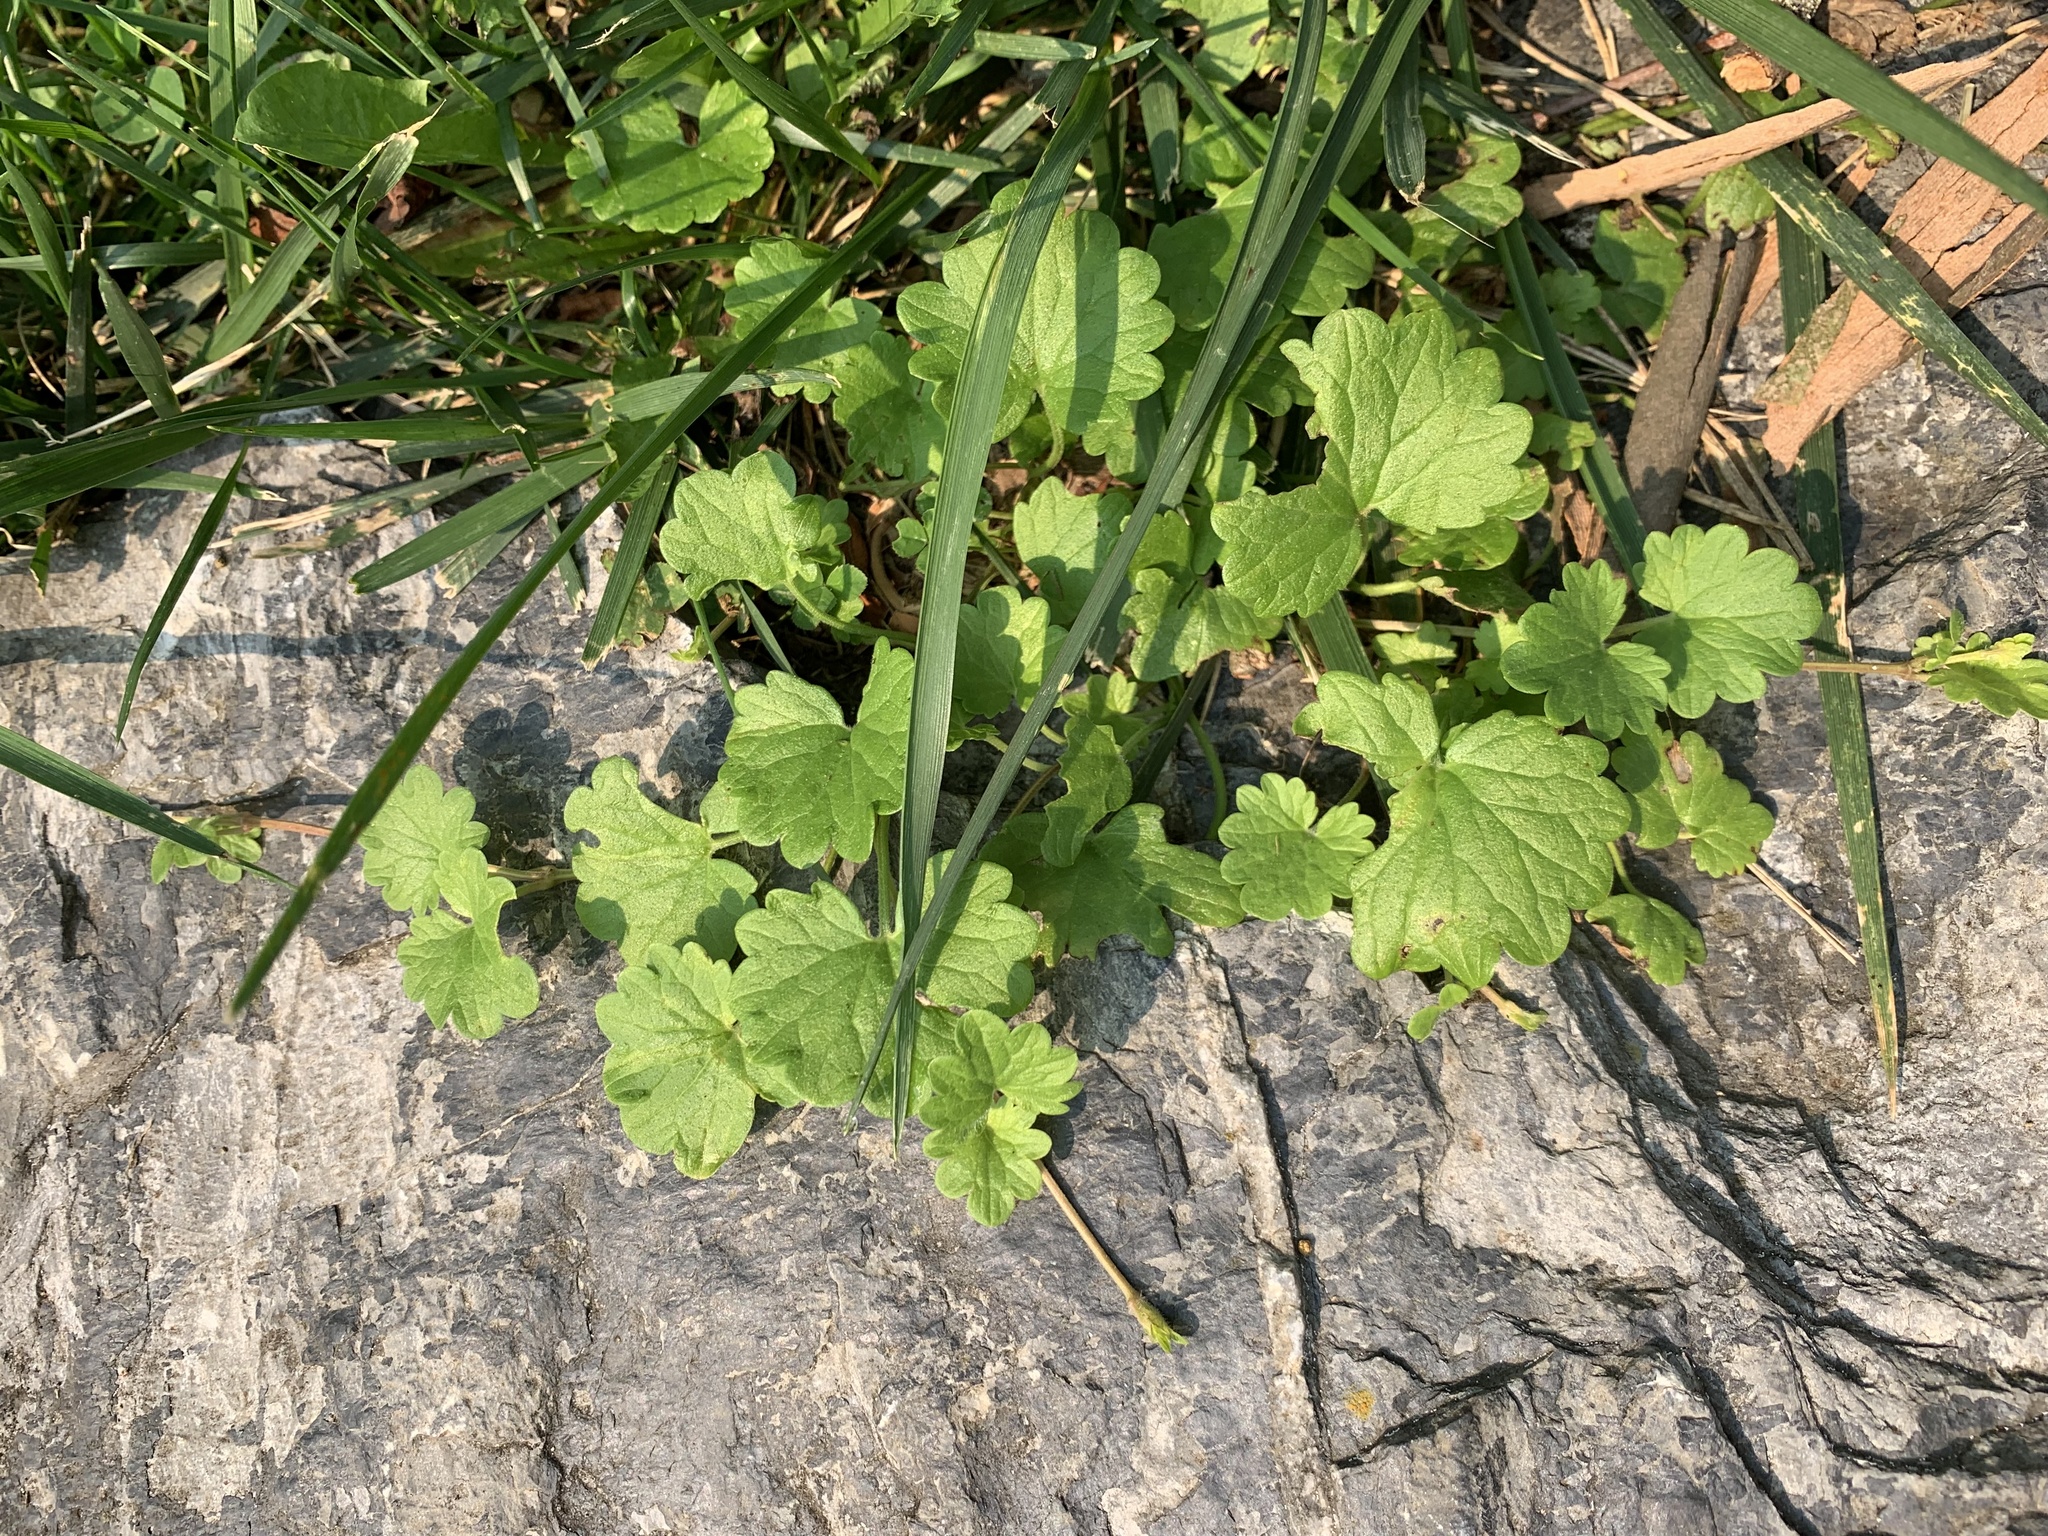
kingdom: Plantae
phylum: Tracheophyta
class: Magnoliopsida
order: Lamiales
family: Lamiaceae
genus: Glechoma
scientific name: Glechoma hederacea
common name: Ground ivy
